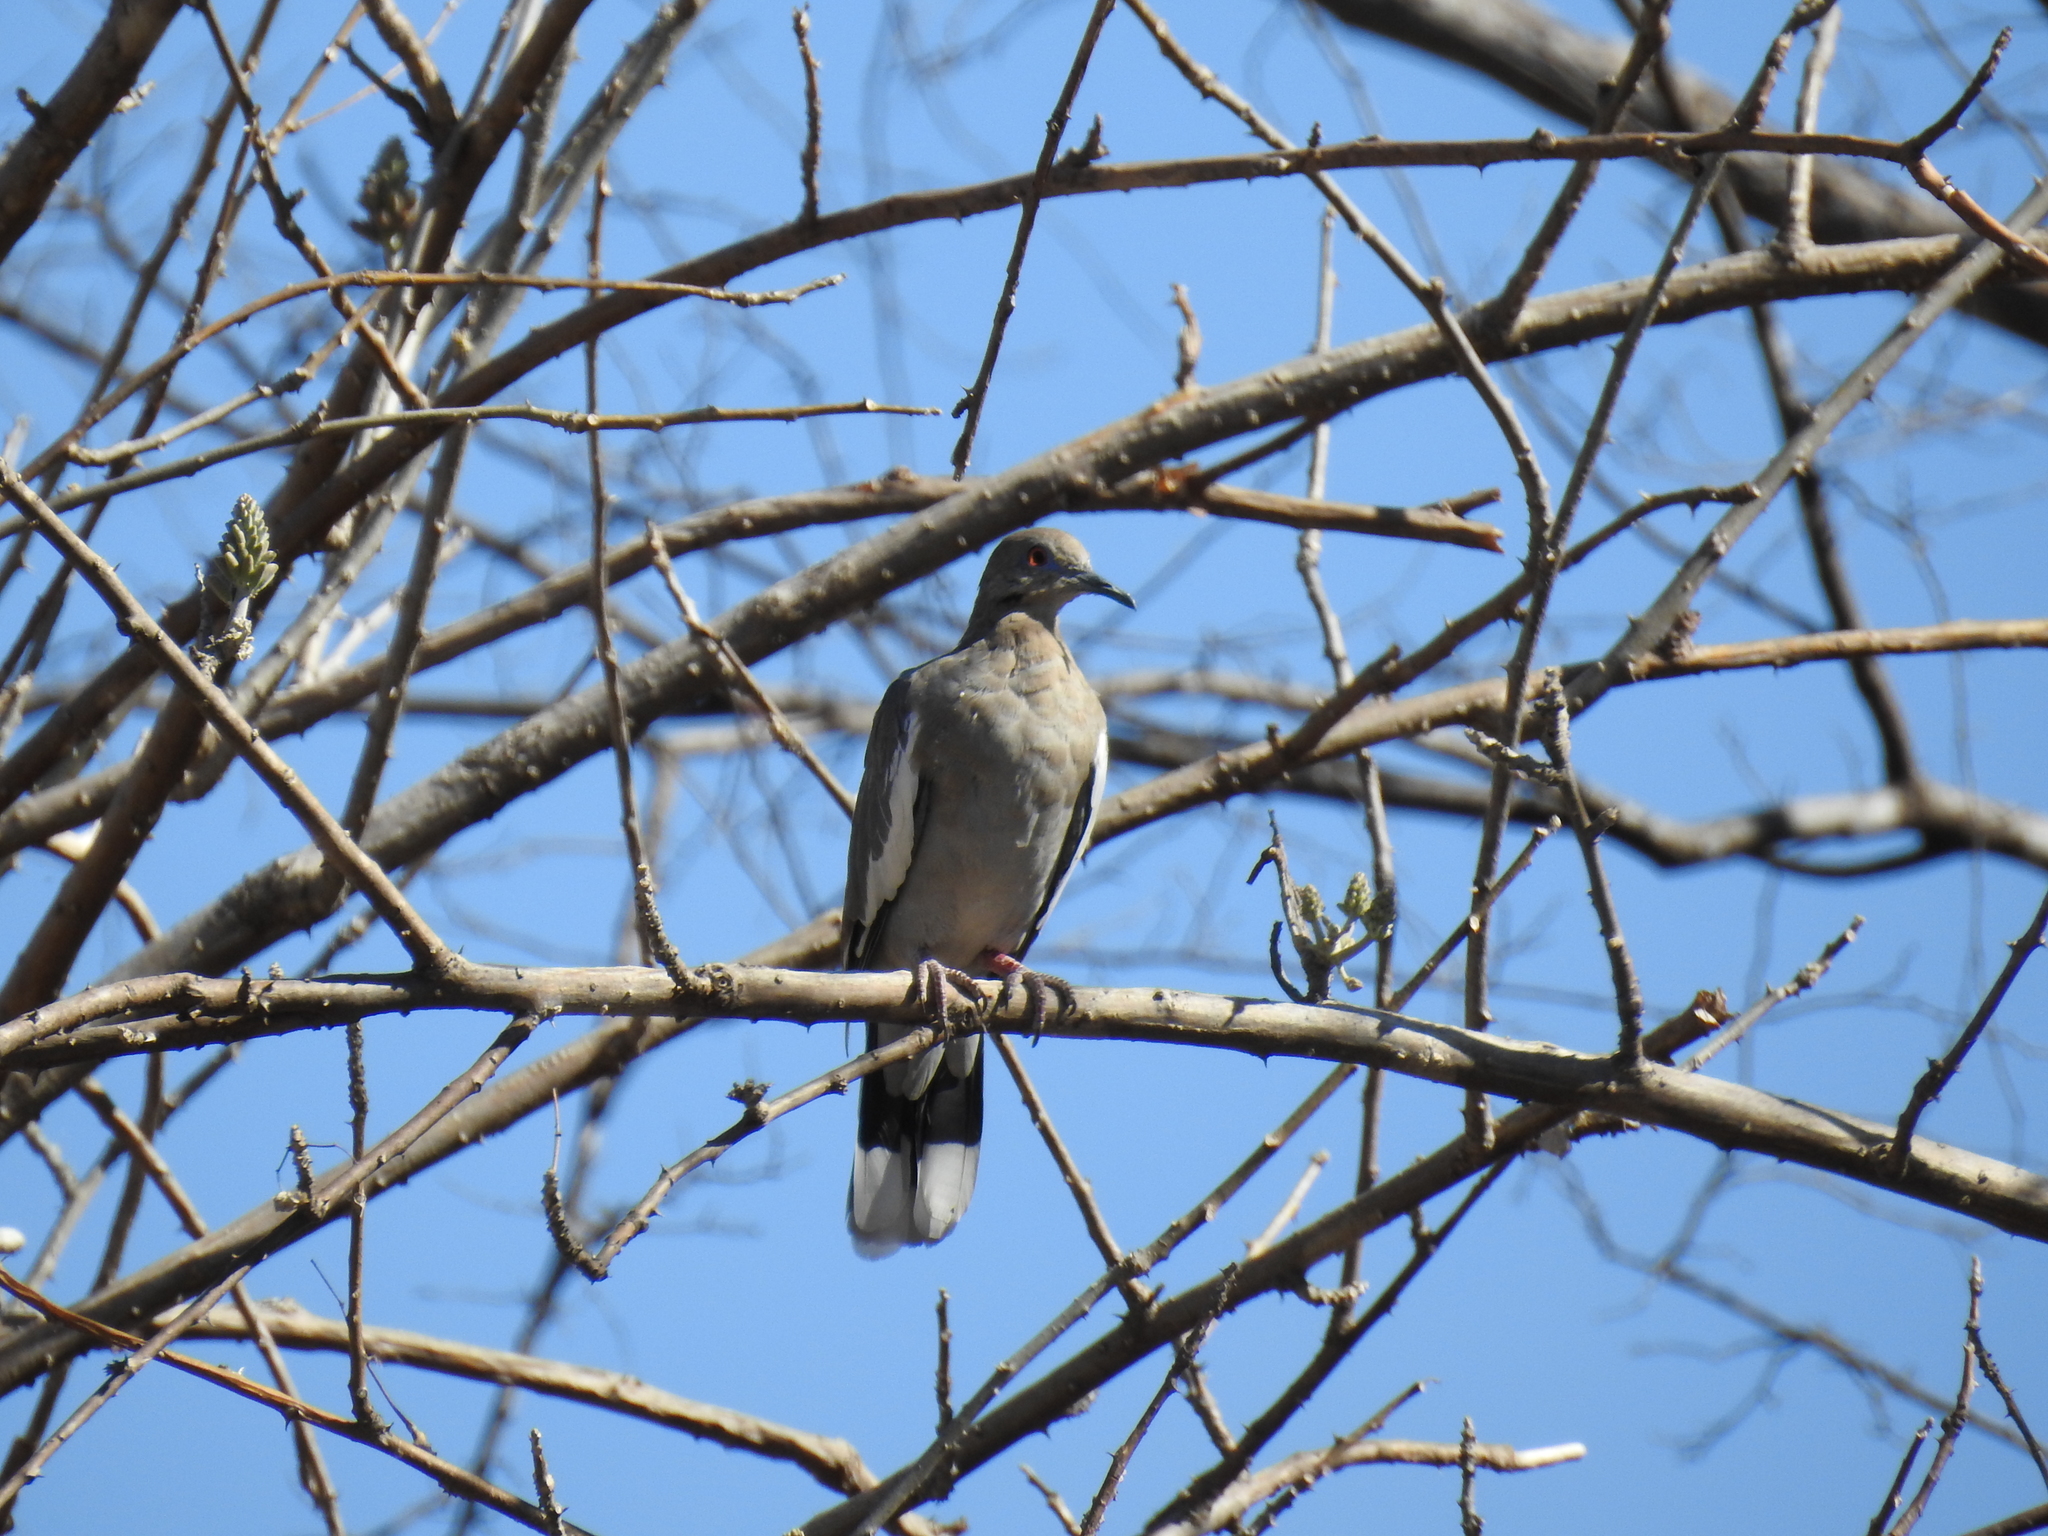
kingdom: Animalia
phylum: Chordata
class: Aves
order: Columbiformes
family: Columbidae
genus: Zenaida
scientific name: Zenaida asiatica
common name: White-winged dove
